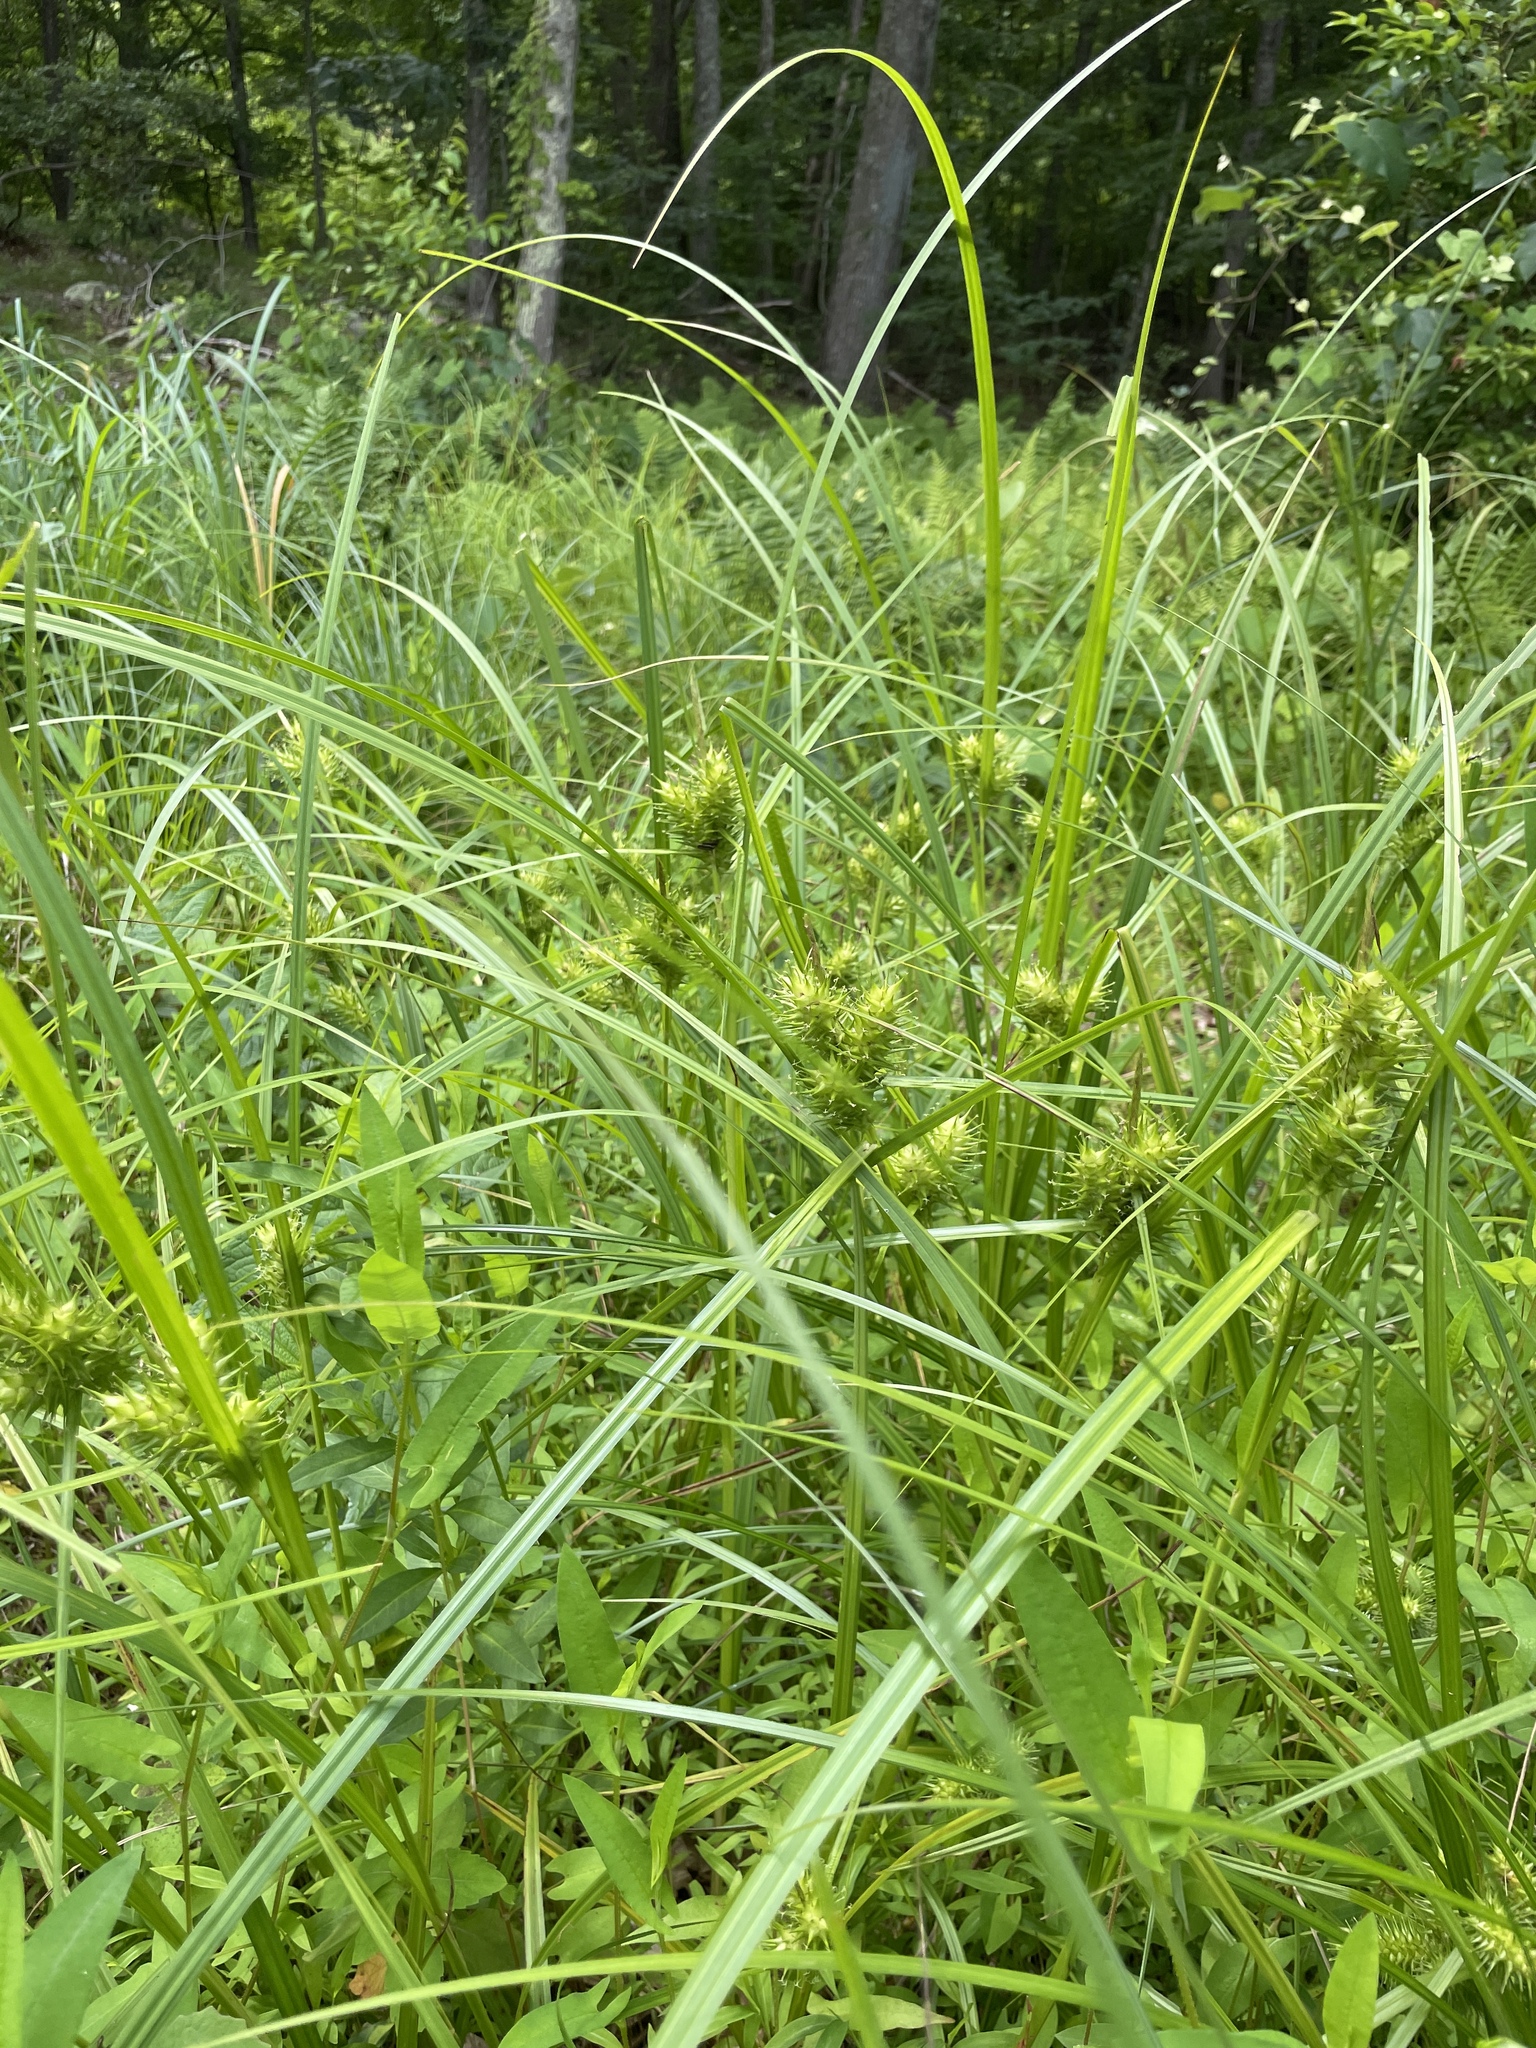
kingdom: Plantae
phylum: Tracheophyta
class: Liliopsida
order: Poales
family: Cyperaceae
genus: Carex
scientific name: Carex lupulina
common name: Hop sedge
